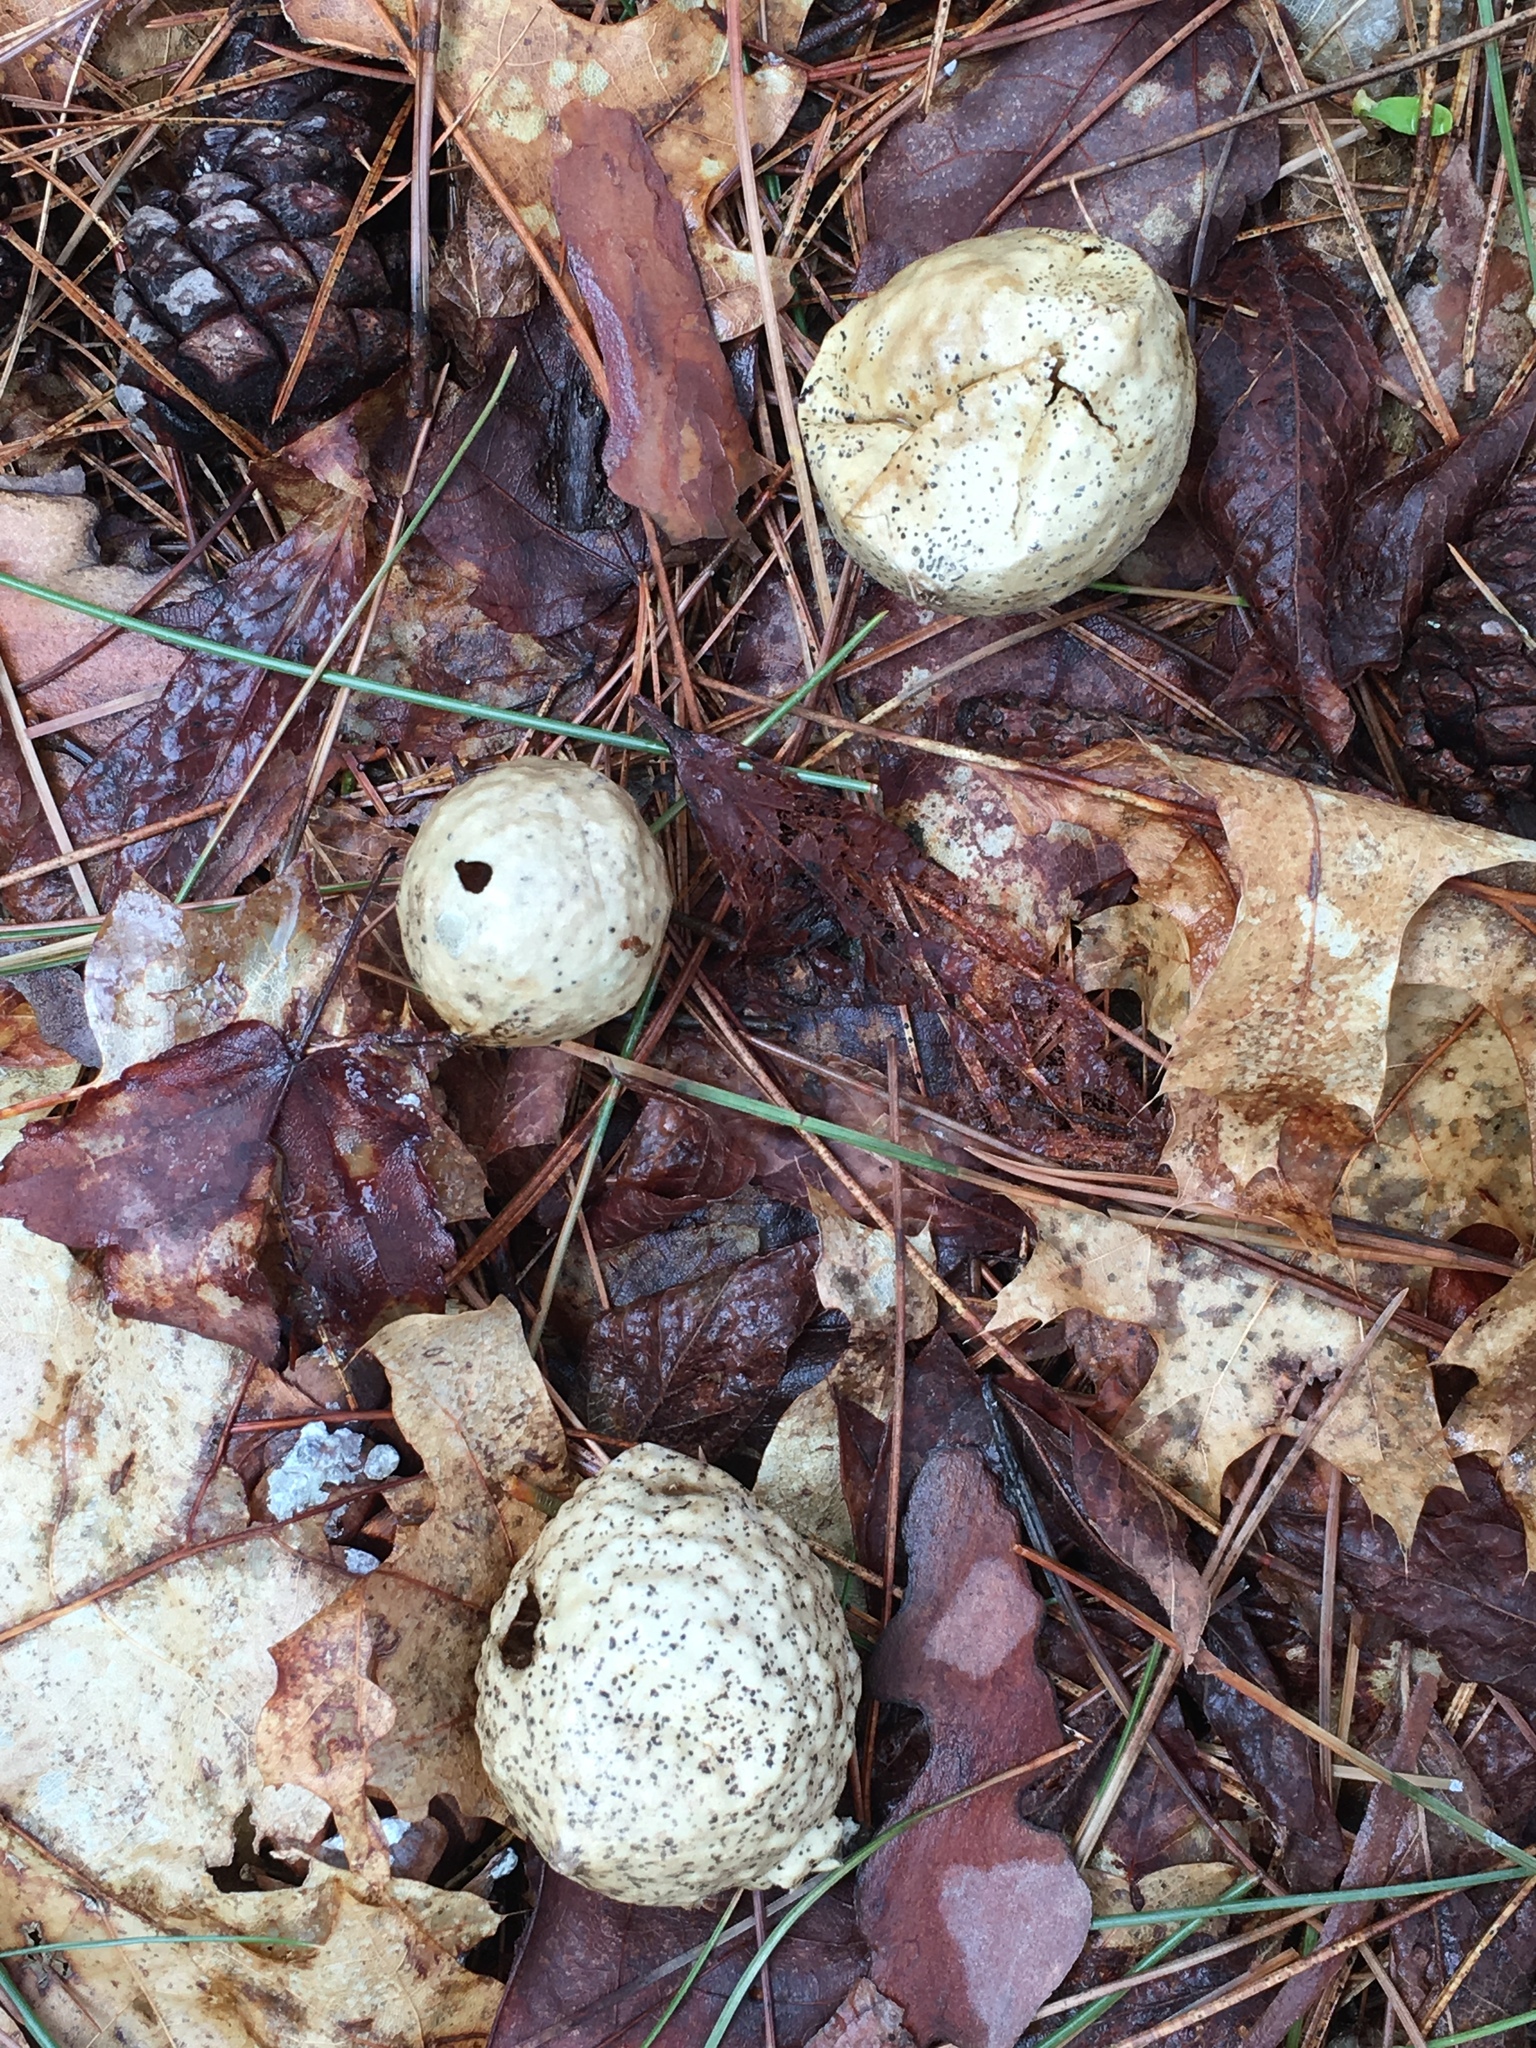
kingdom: Animalia
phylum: Arthropoda
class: Insecta
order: Hymenoptera
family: Cynipidae
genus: Amphibolips
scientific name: Amphibolips
